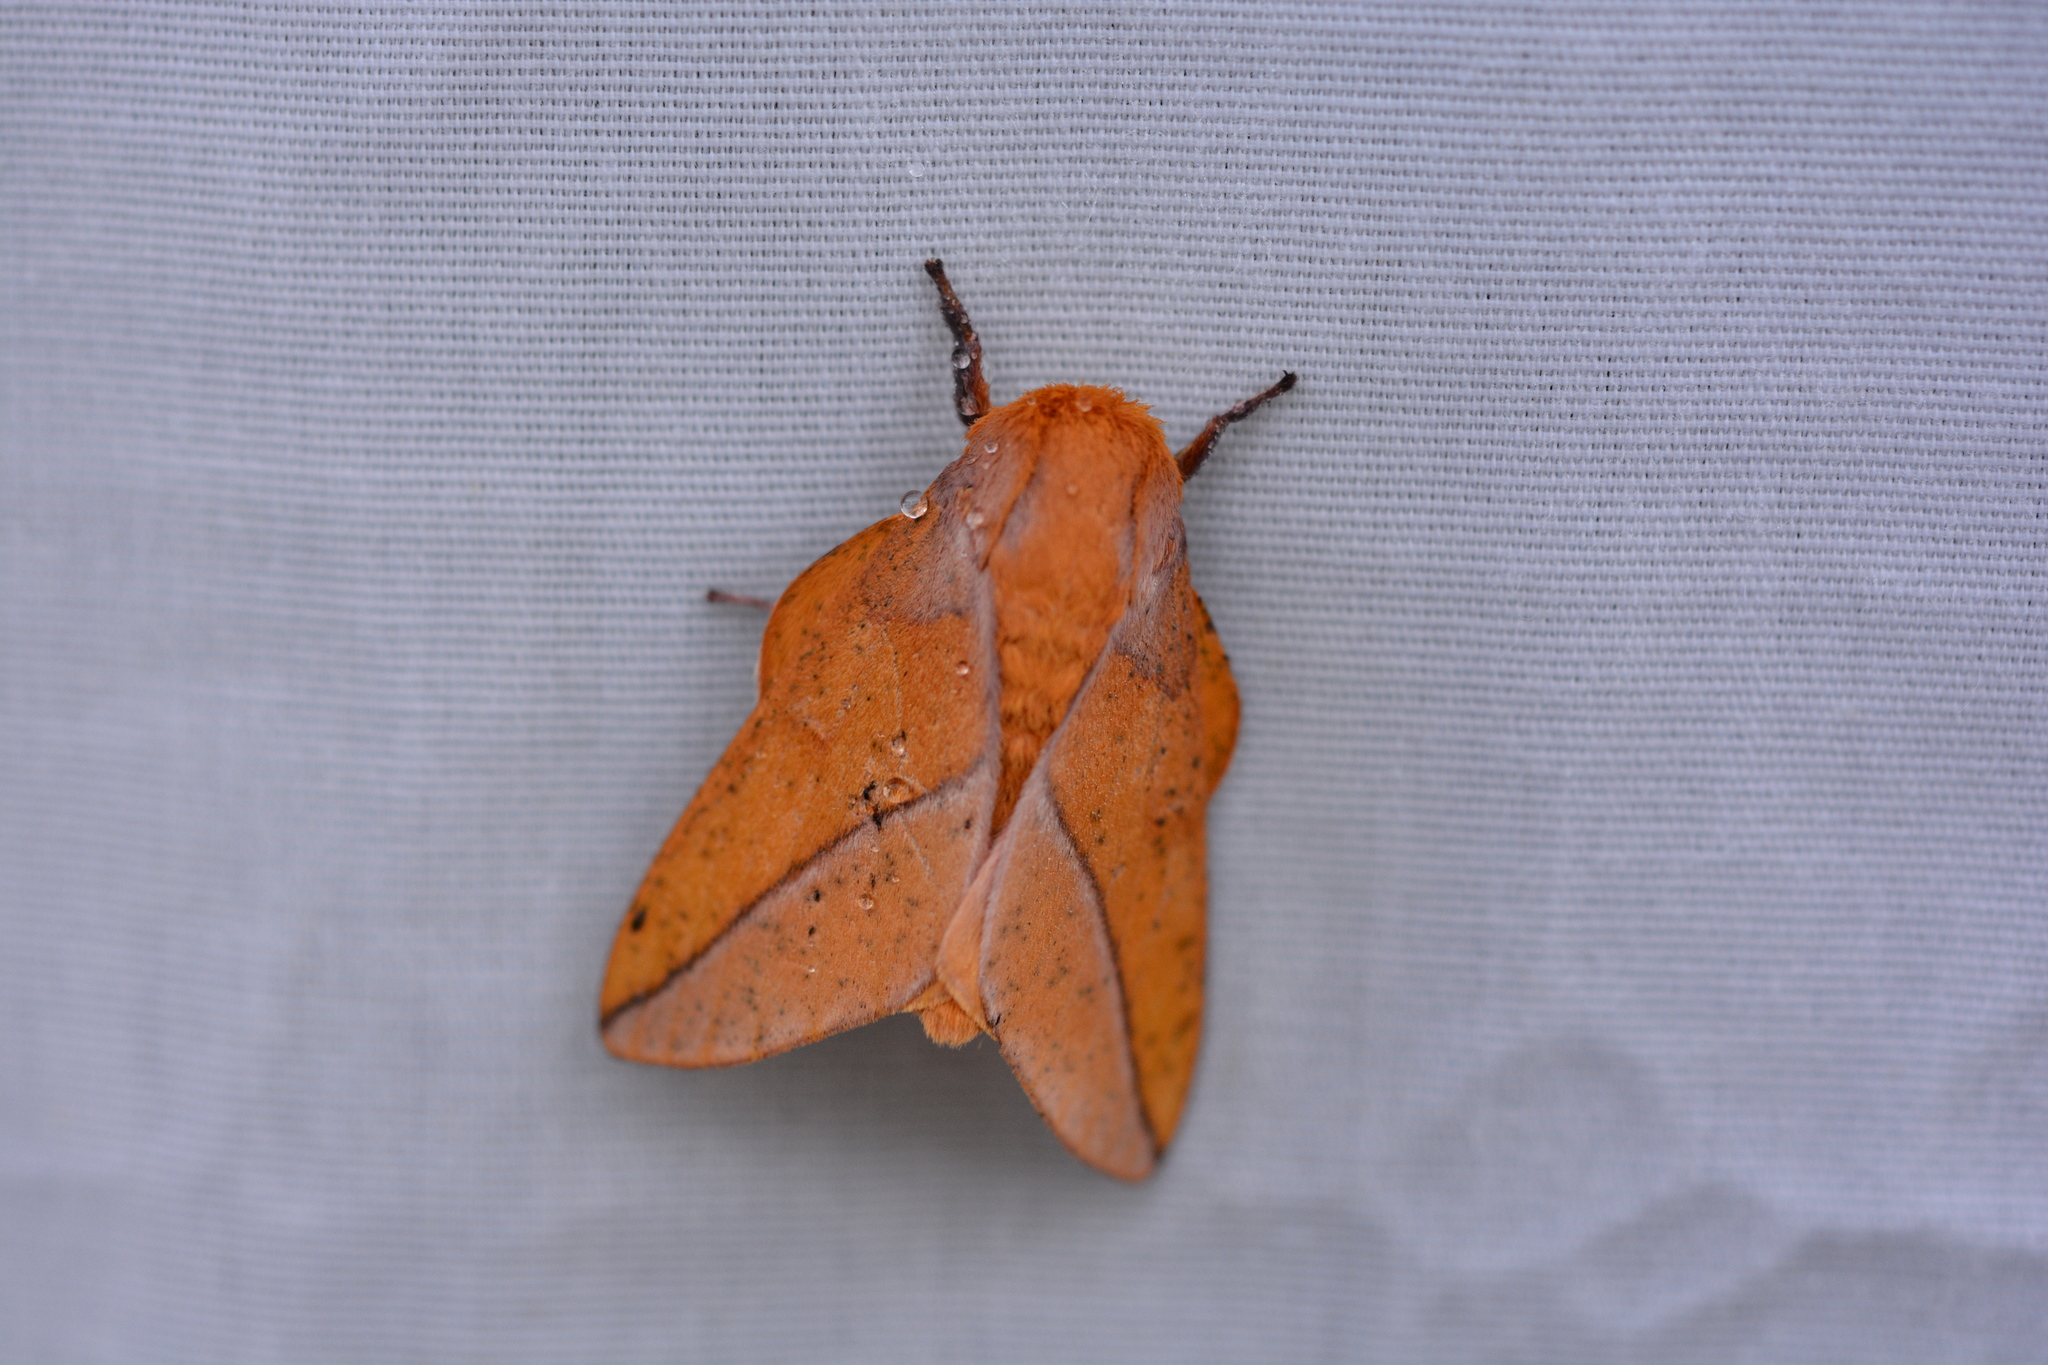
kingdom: Animalia
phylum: Arthropoda
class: Insecta
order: Lepidoptera
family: Saturniidae
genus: Syssphinx
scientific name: Syssphinx bisecta
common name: Bisected honey locust moth
